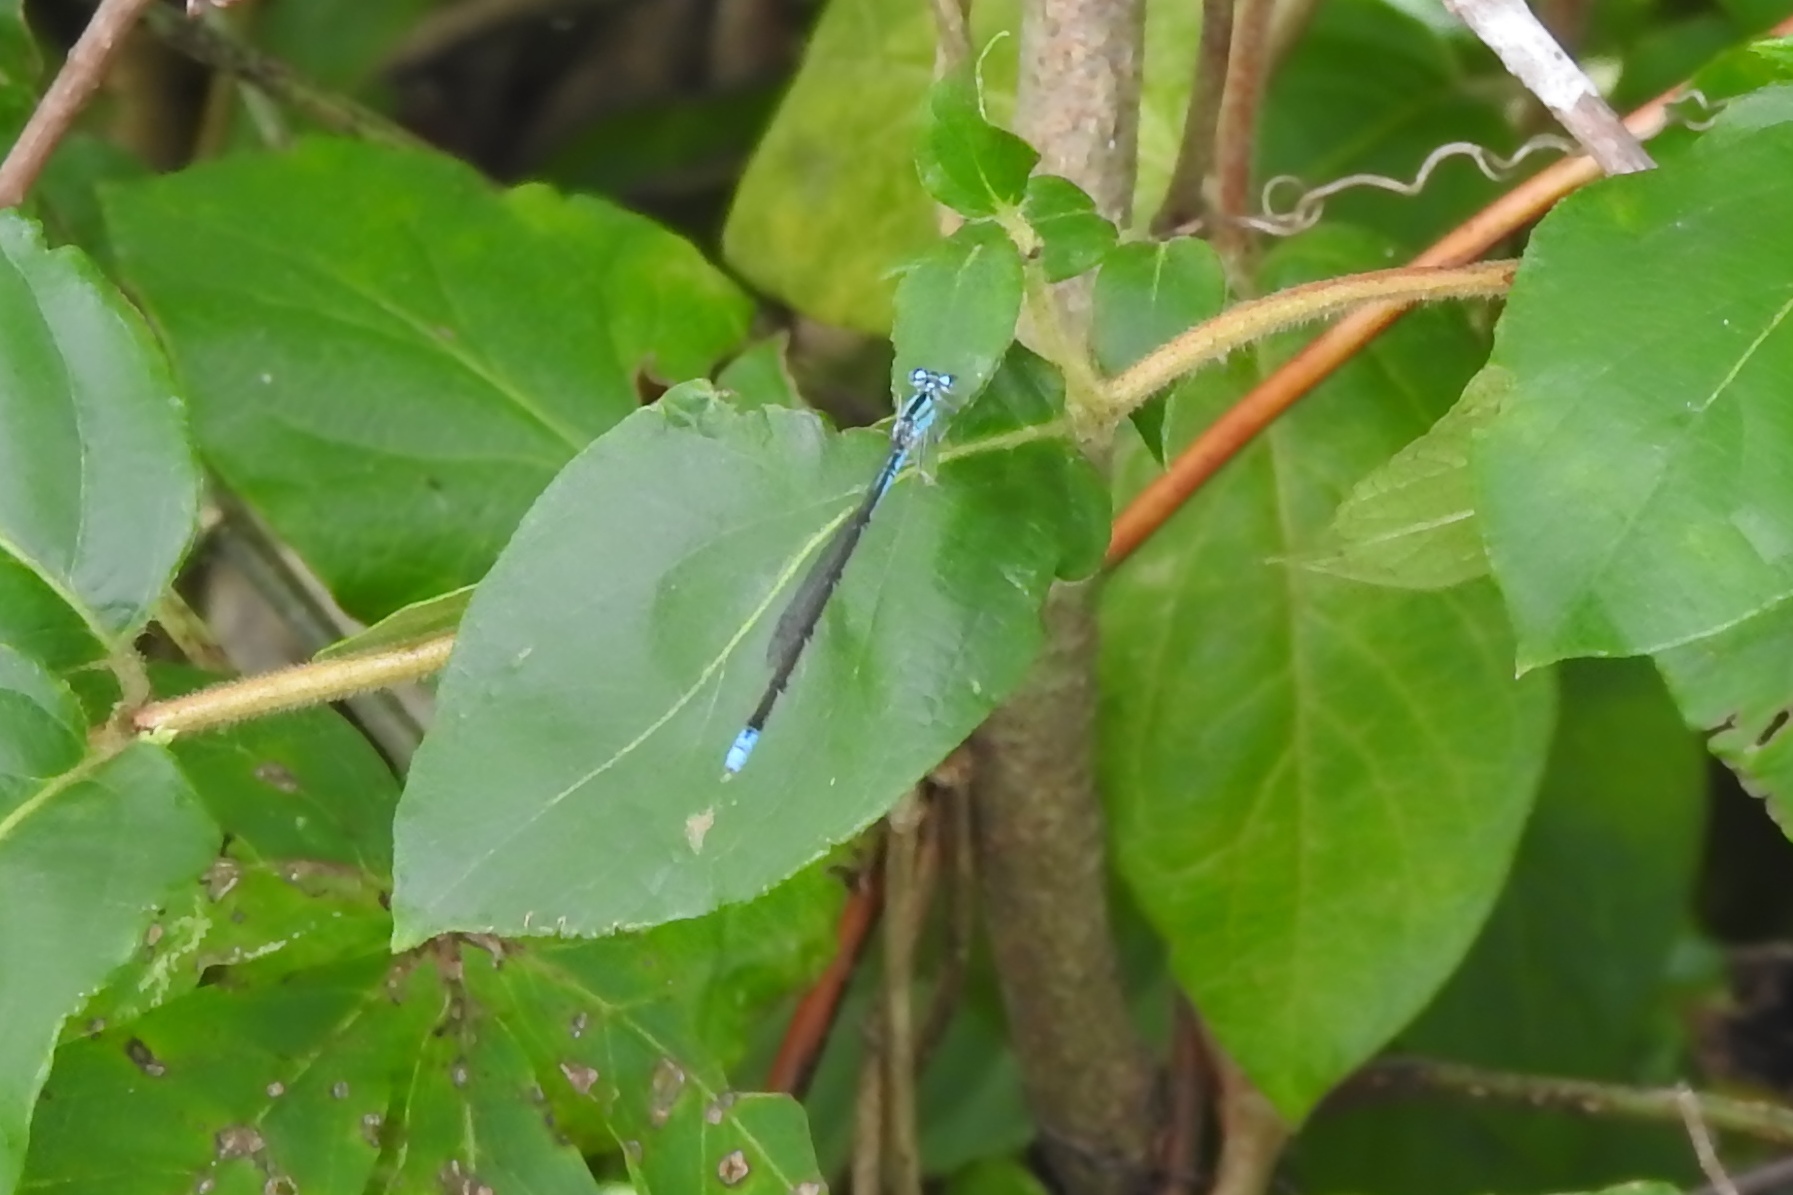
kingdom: Animalia
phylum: Arthropoda
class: Insecta
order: Odonata
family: Coenagrionidae
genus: Enallagma
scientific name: Enallagma traviatum
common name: Slender bluet
